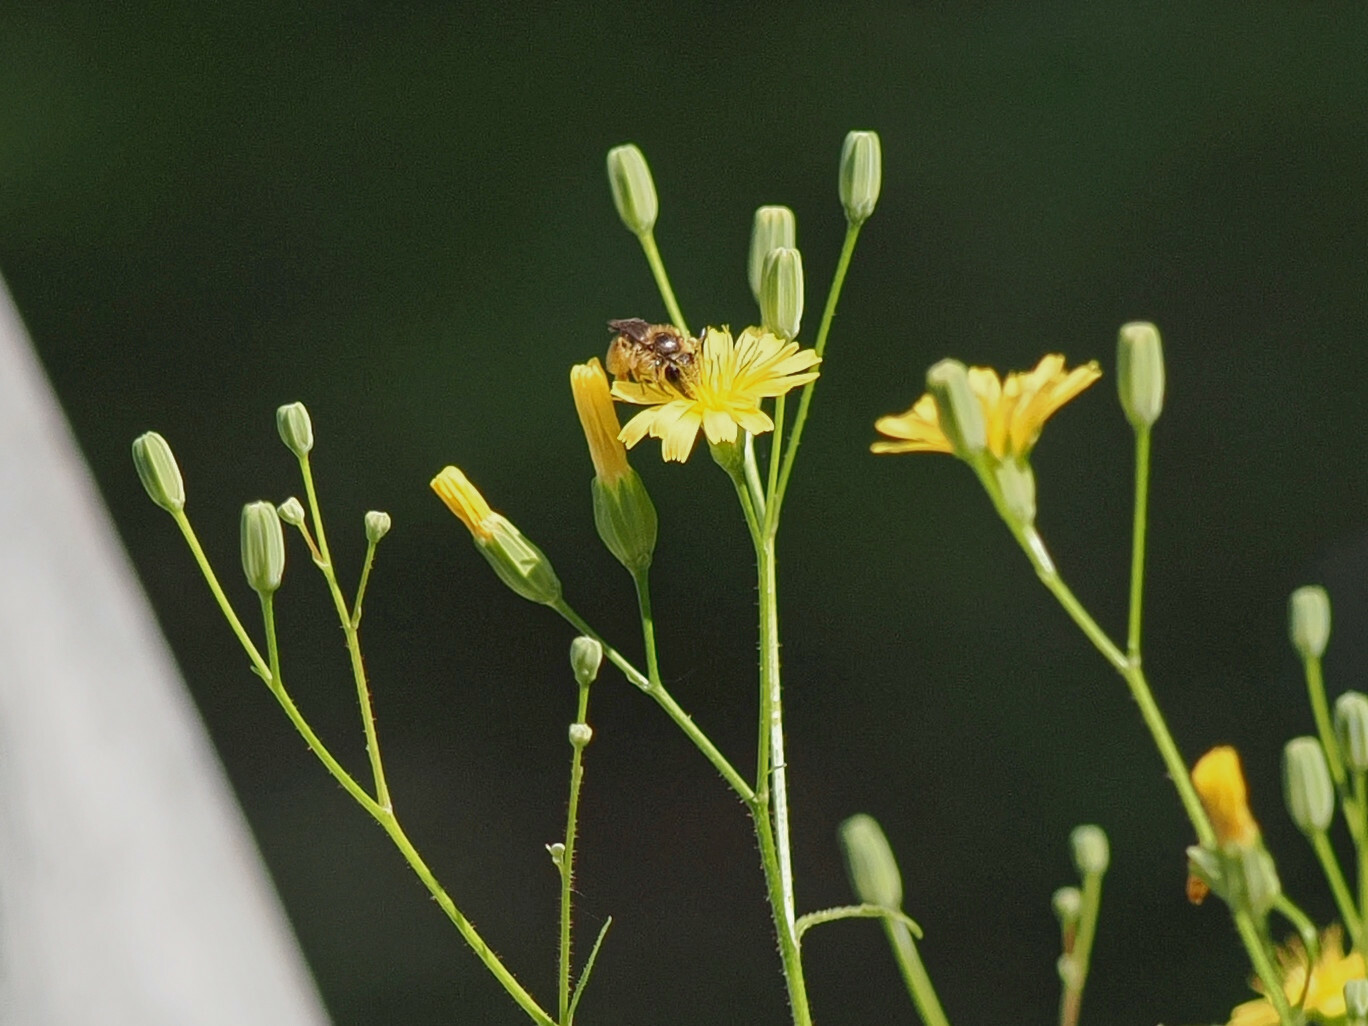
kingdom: Plantae
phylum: Tracheophyta
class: Magnoliopsida
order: Asterales
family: Asteraceae
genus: Lapsana
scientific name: Lapsana communis
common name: Nipplewort
